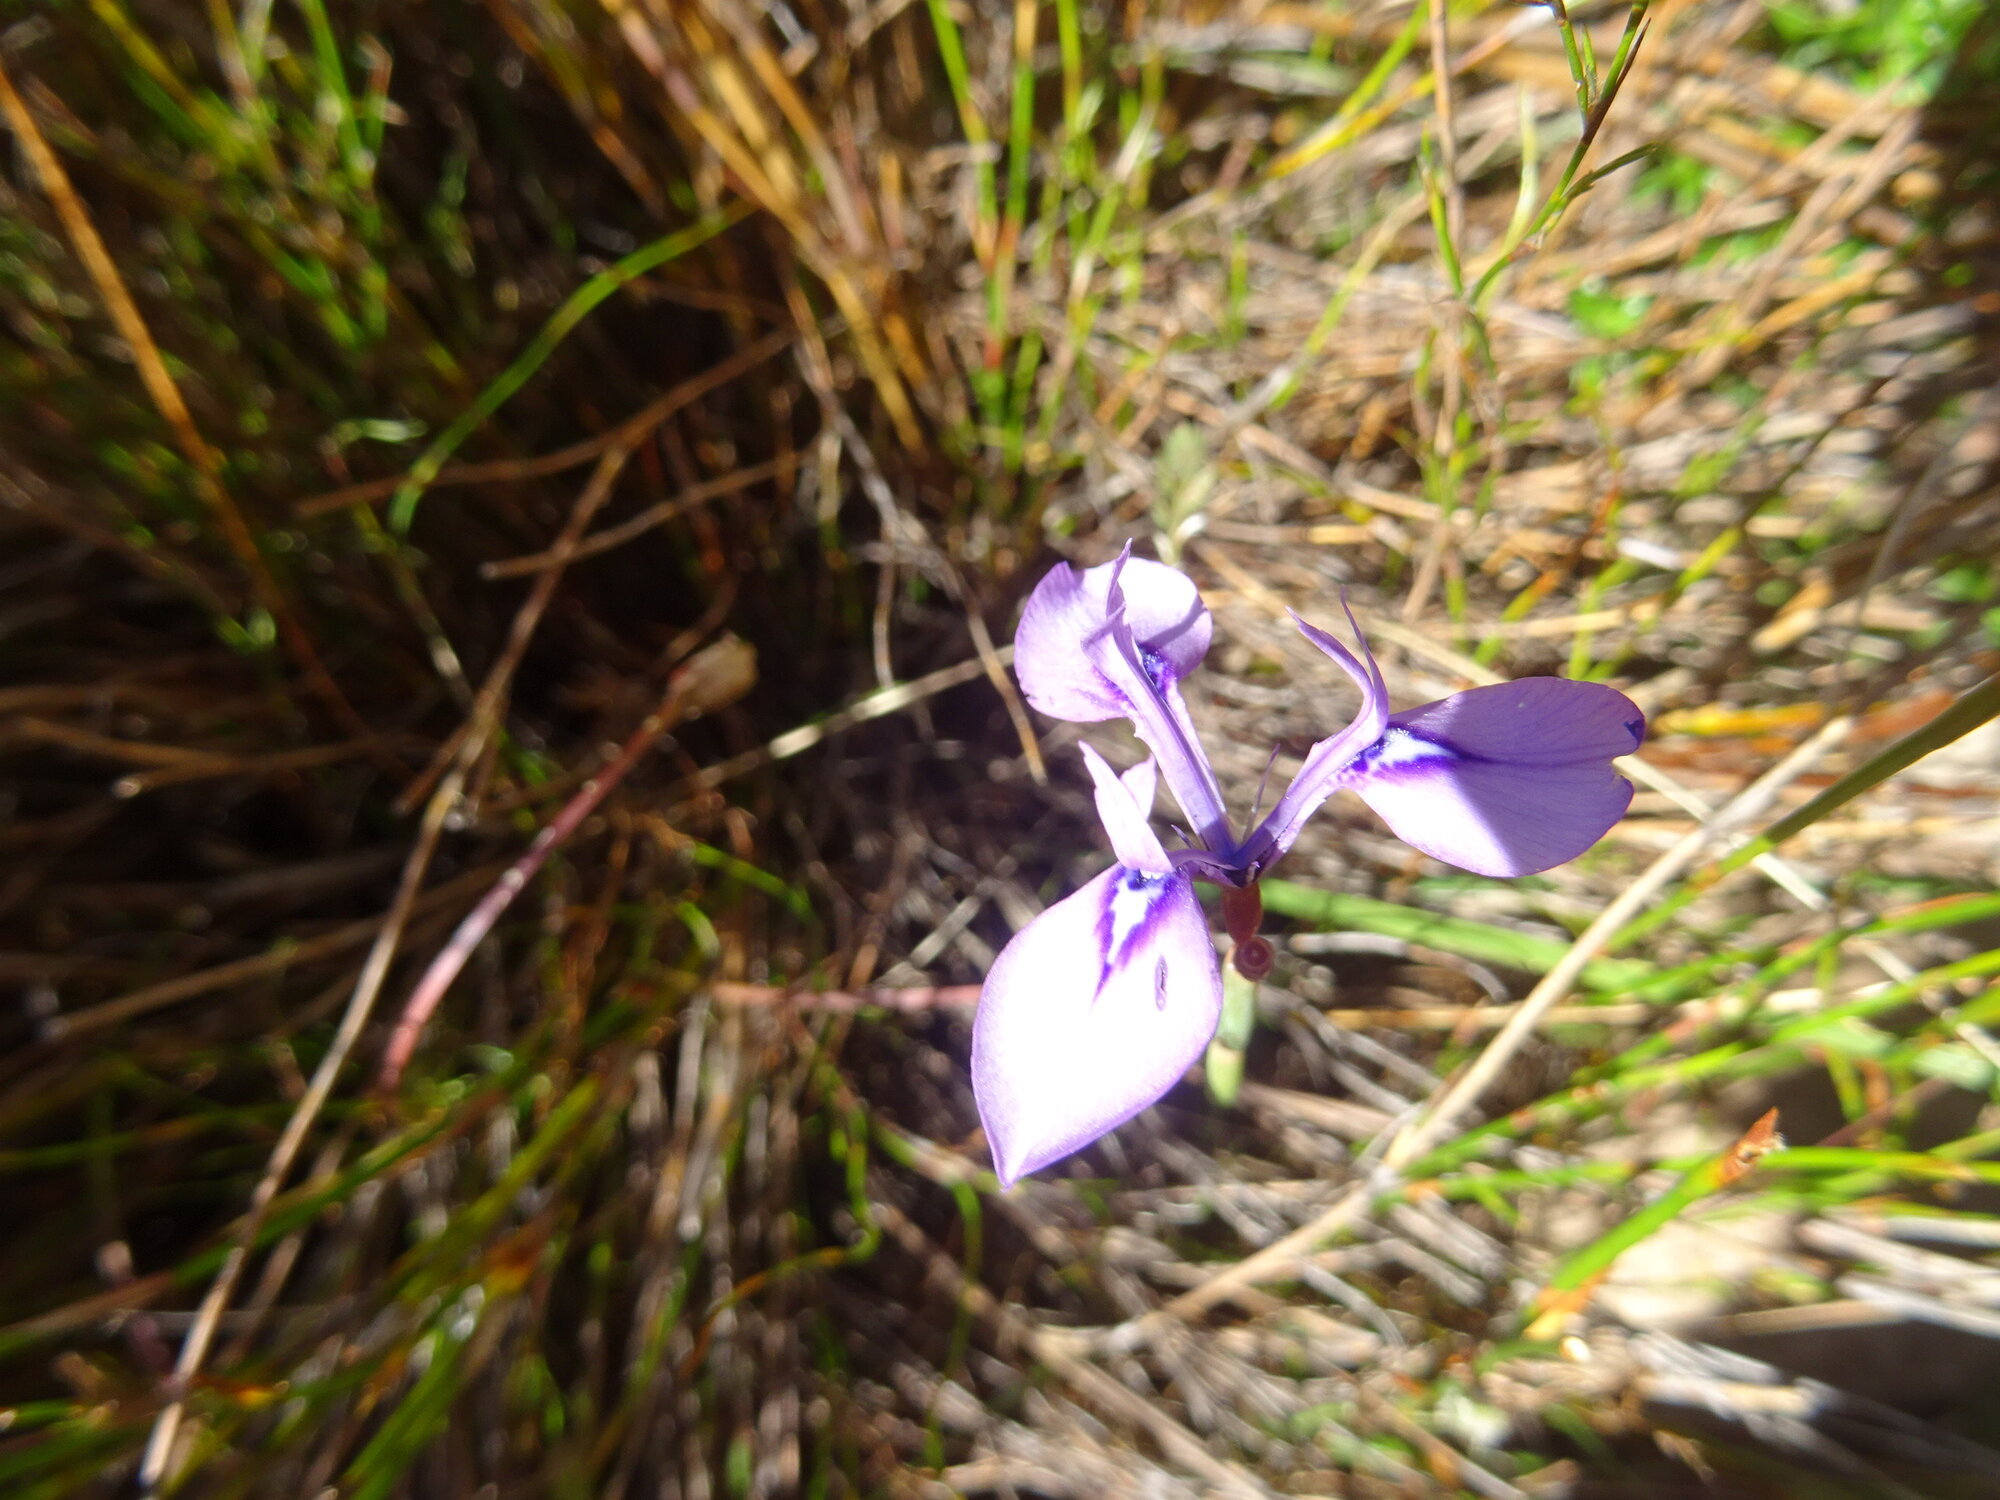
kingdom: Plantae
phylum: Tracheophyta
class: Liliopsida
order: Asparagales
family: Iridaceae
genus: Moraea
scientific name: Moraea tripetala
